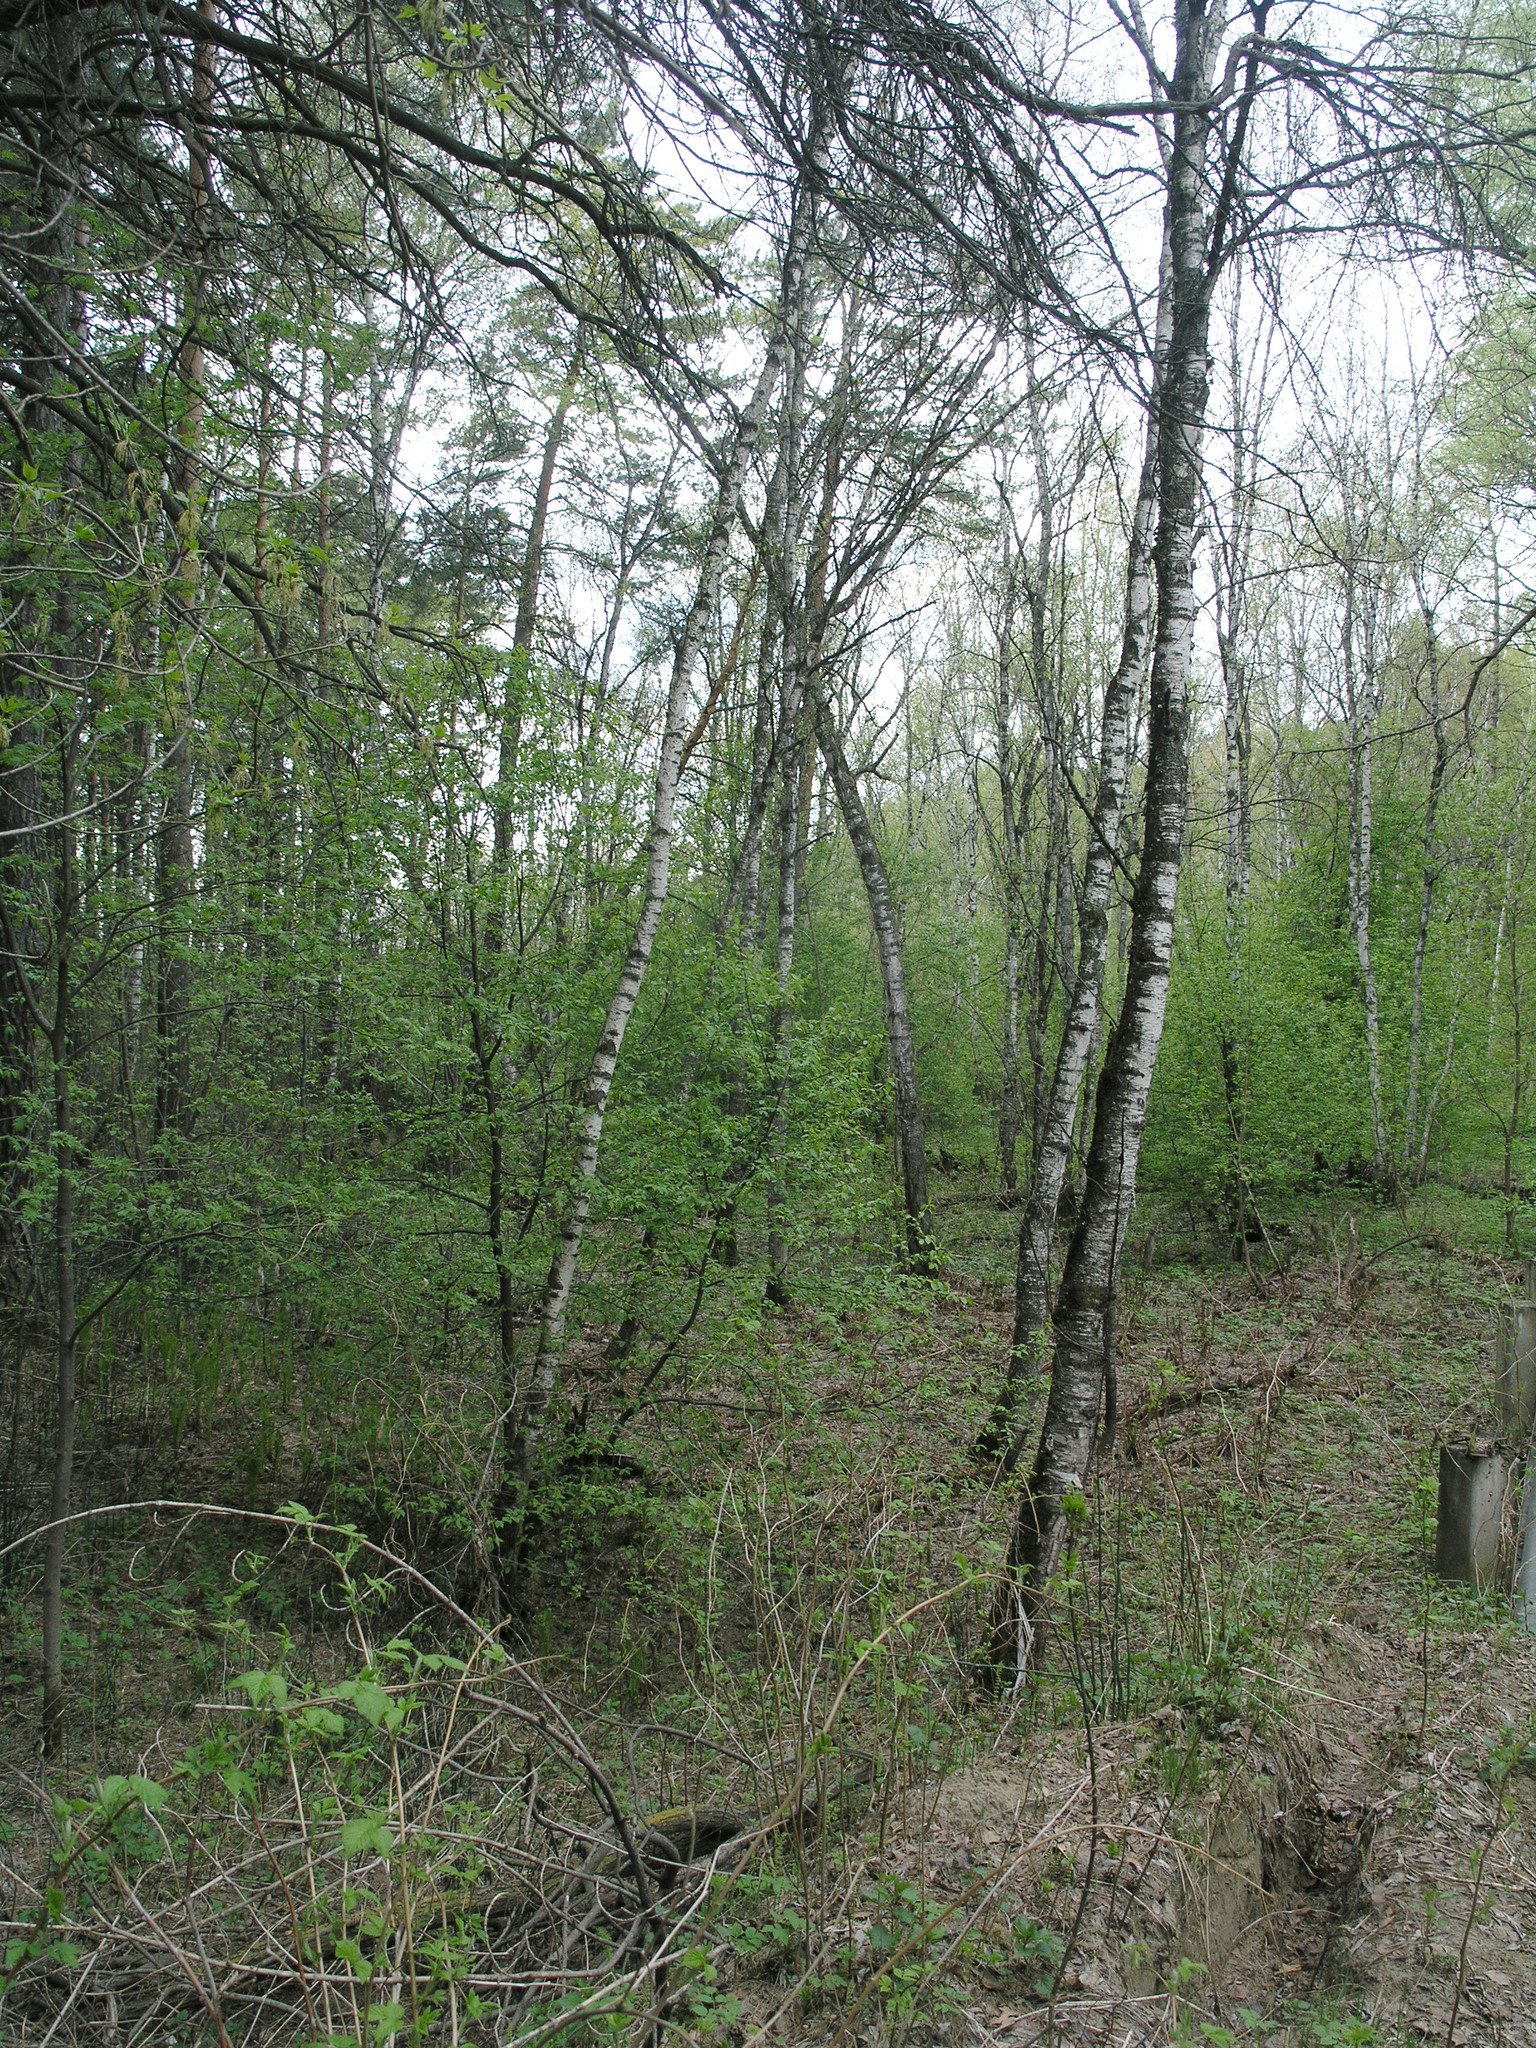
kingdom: Plantae
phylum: Tracheophyta
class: Magnoliopsida
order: Fagales
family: Betulaceae
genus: Betula
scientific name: Betula pubescens
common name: Downy birch
